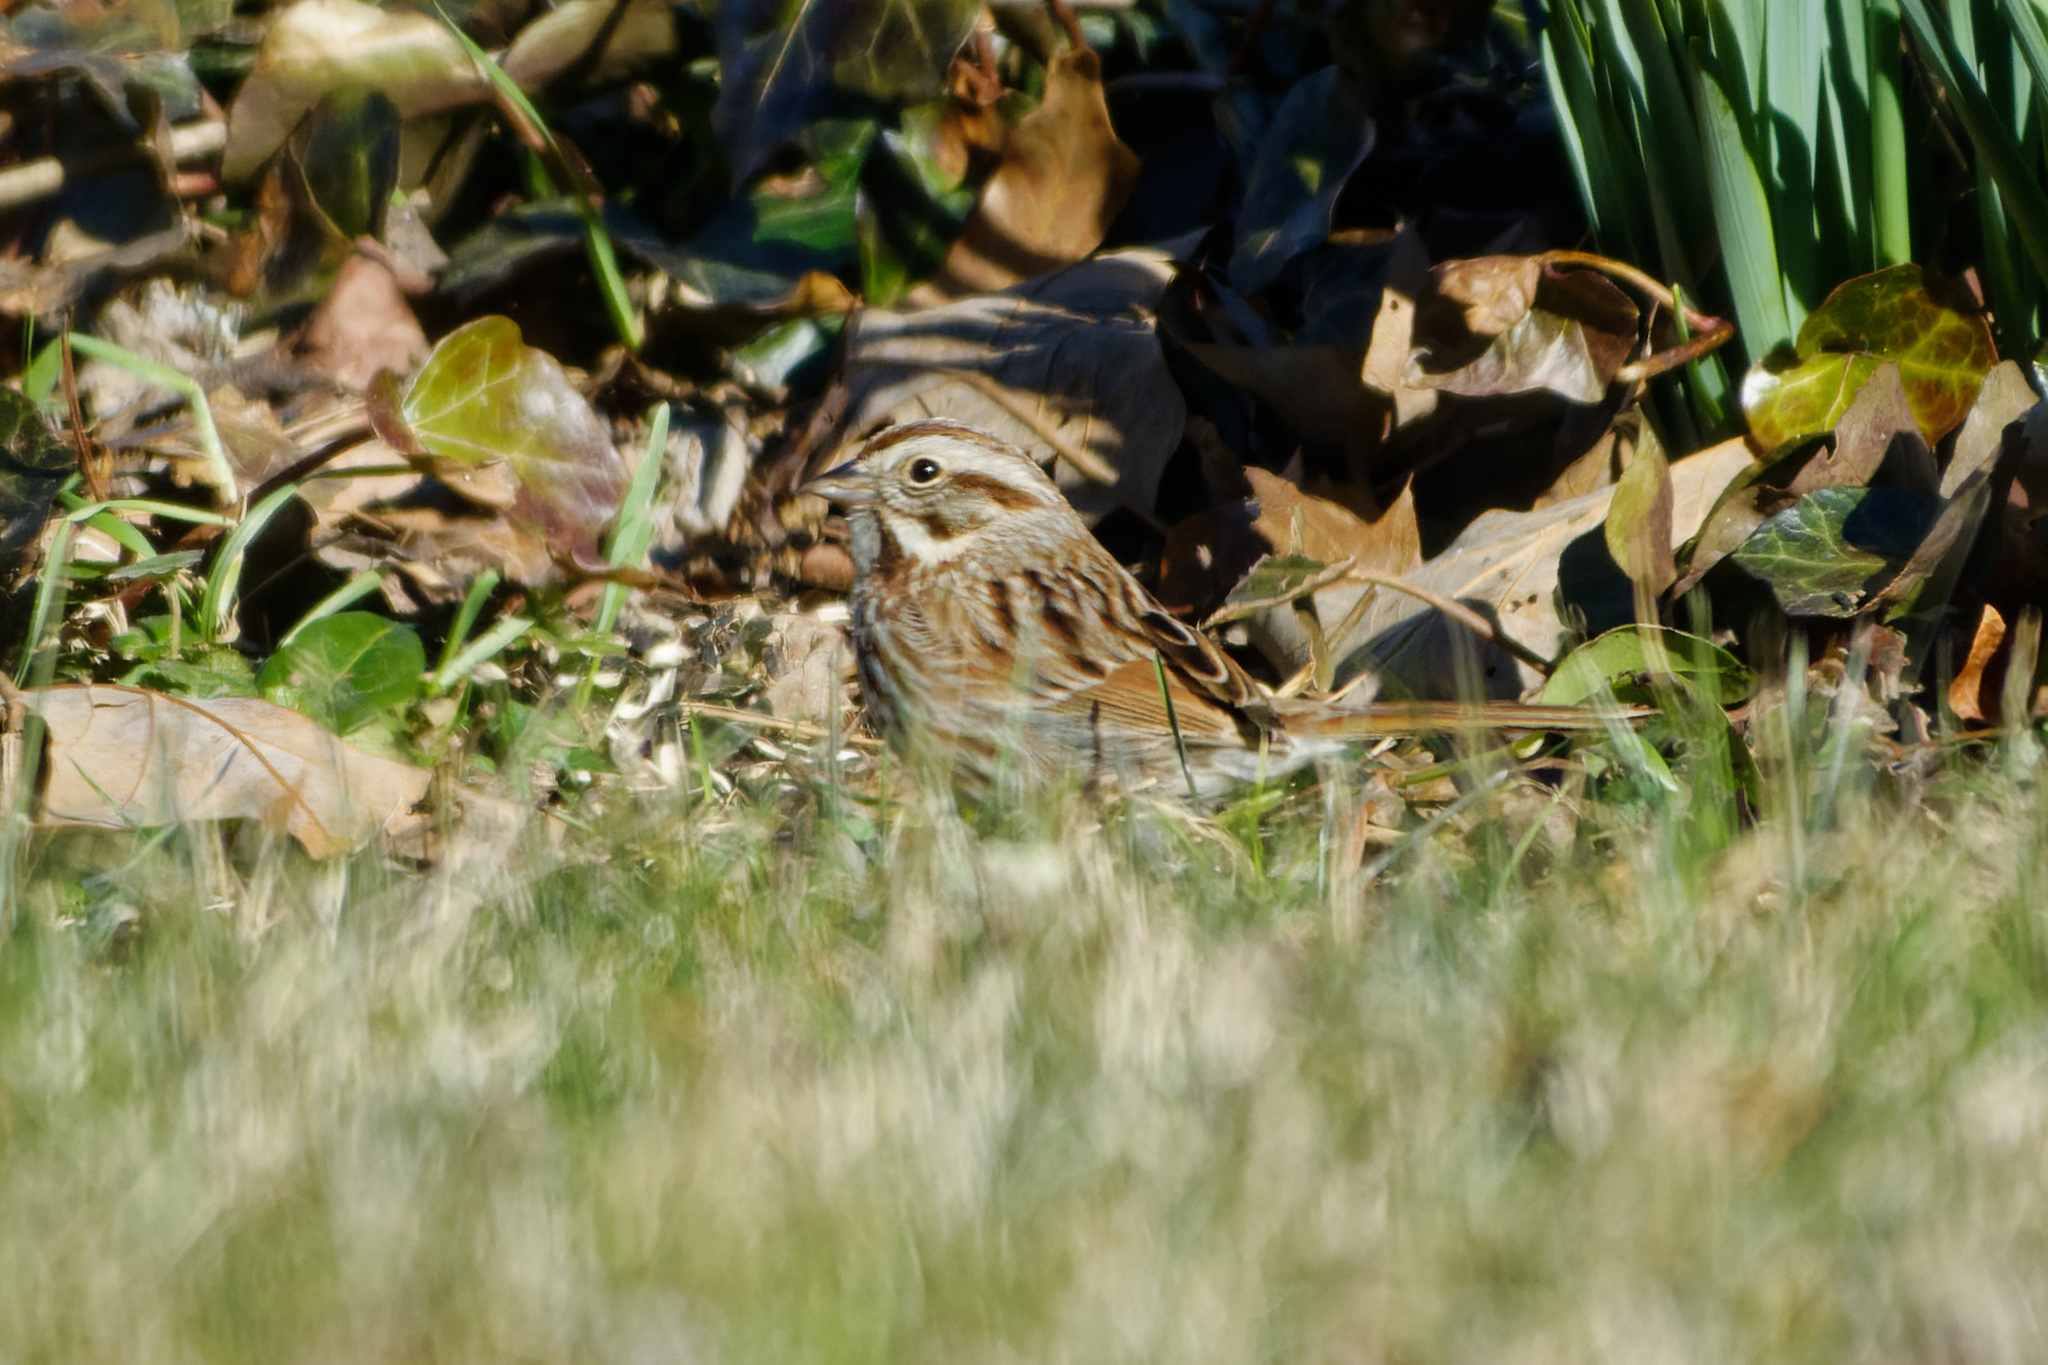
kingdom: Animalia
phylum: Chordata
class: Aves
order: Passeriformes
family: Passerellidae
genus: Melospiza
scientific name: Melospiza melodia
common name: Song sparrow
